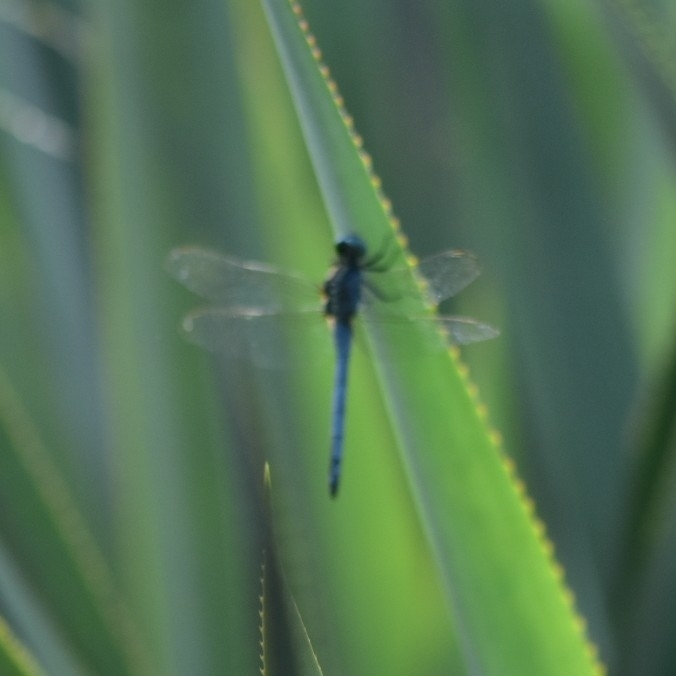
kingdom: Animalia
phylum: Arthropoda
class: Insecta
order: Odonata
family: Libellulidae
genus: Orthetrum
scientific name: Orthetrum luzonicum
